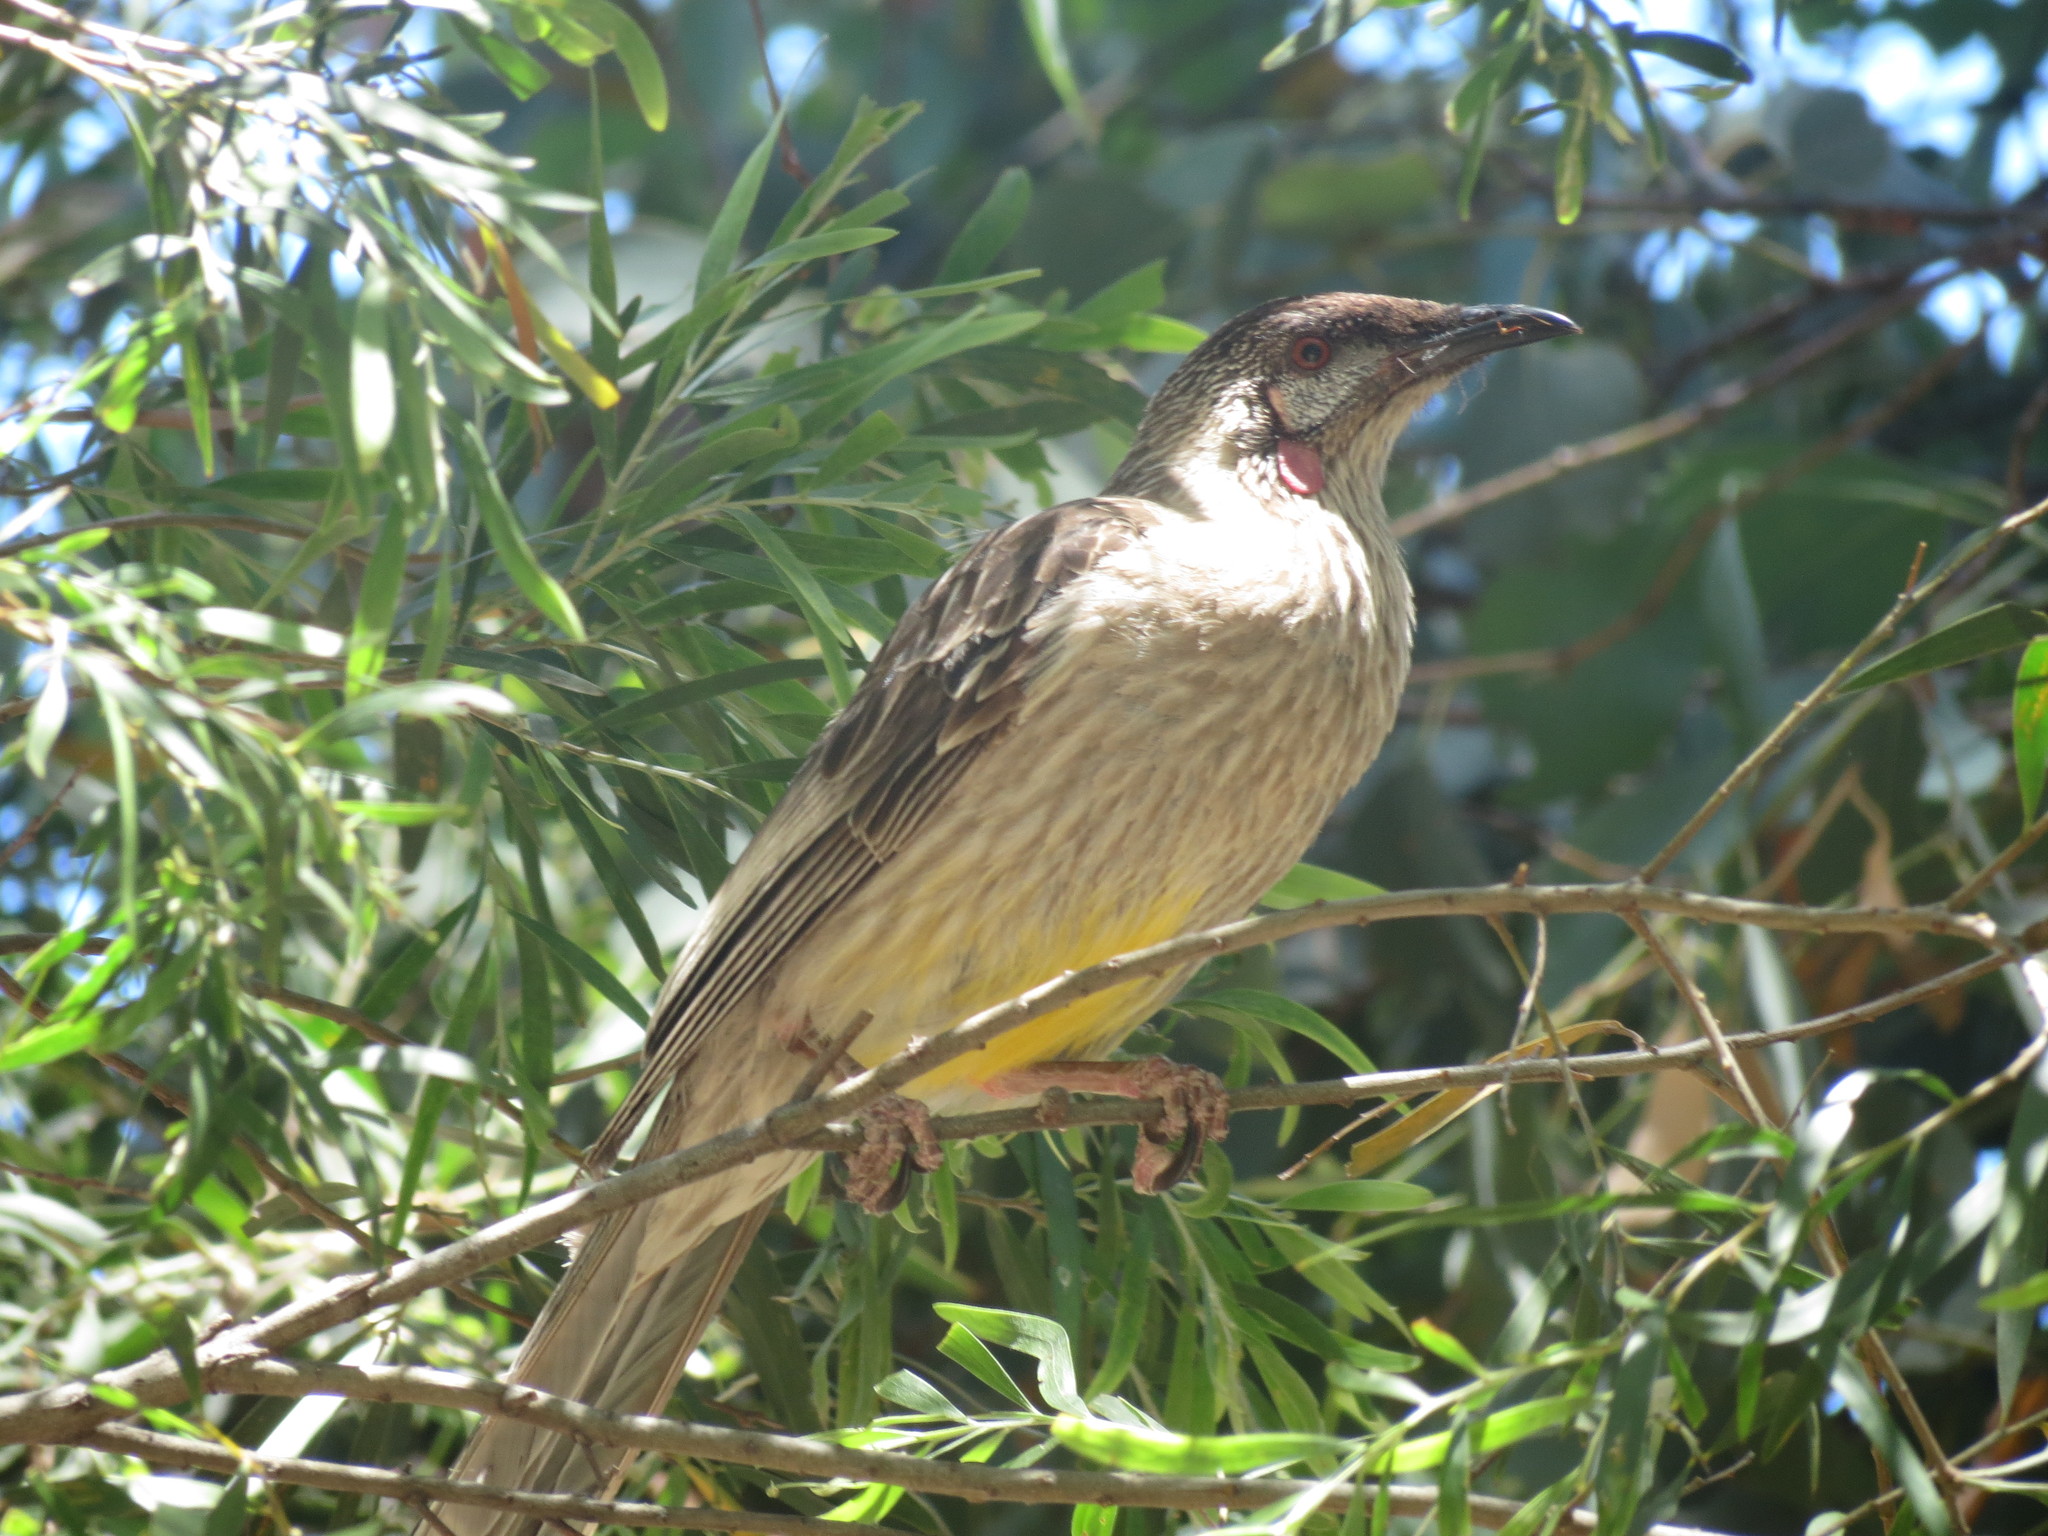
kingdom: Animalia
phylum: Chordata
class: Aves
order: Passeriformes
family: Meliphagidae
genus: Anthochaera
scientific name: Anthochaera carunculata
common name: Red wattlebird
